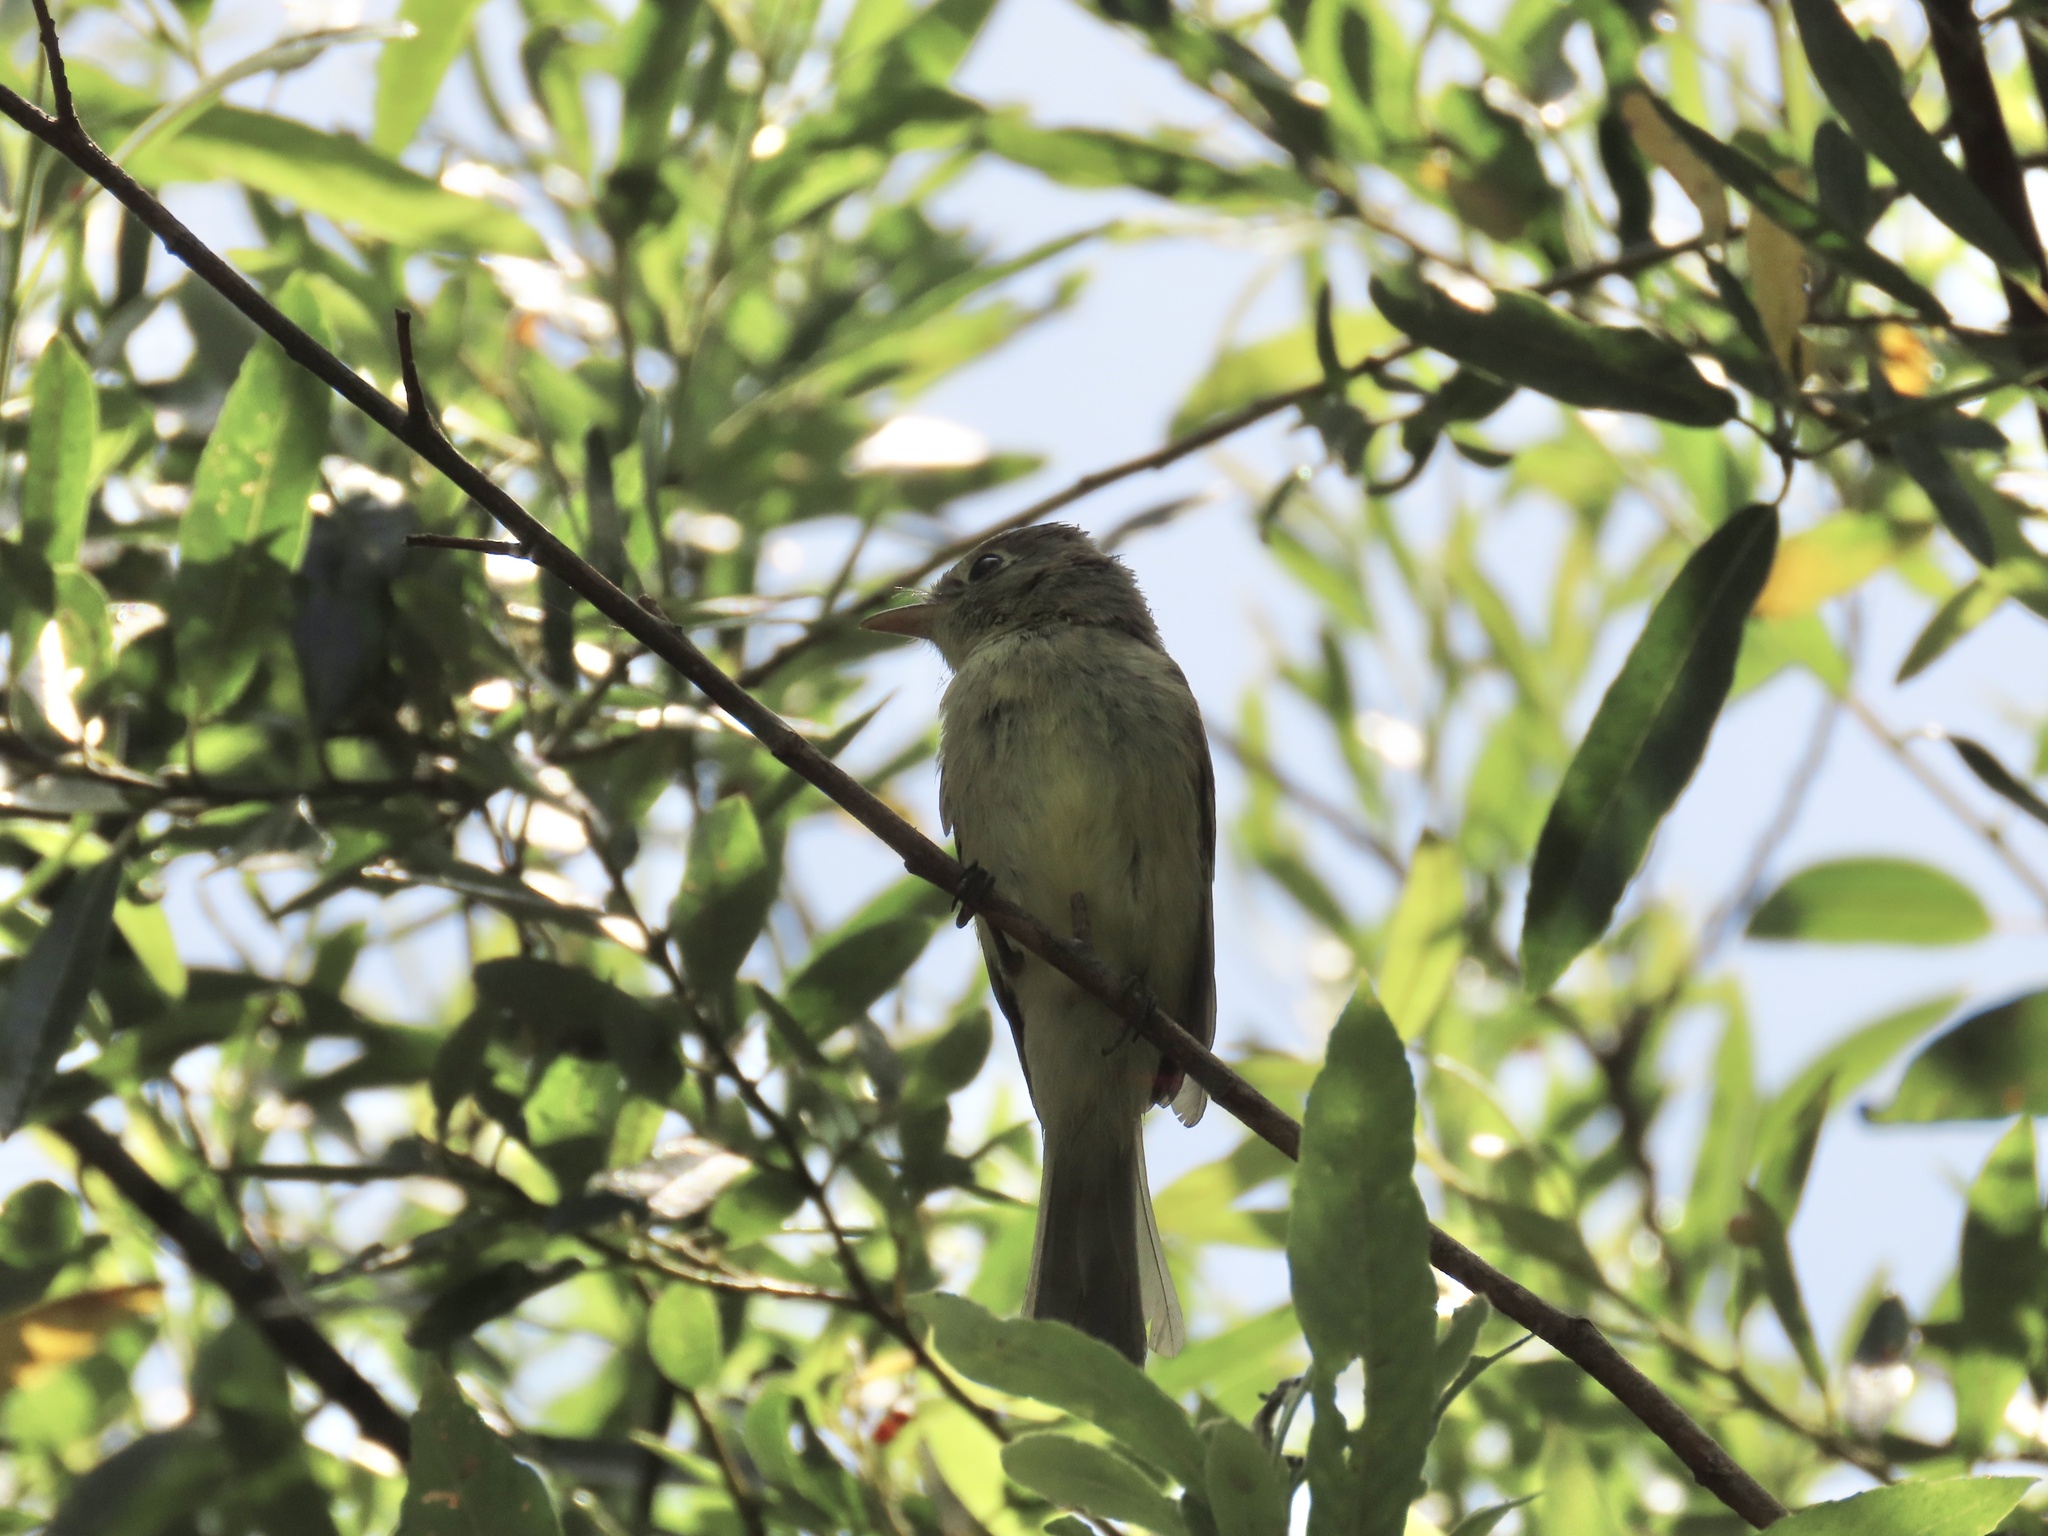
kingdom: Animalia
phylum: Chordata
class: Aves
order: Passeriformes
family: Tyrannidae
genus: Empidonax
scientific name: Empidonax difficilis
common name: Pacific-slope flycatcher
